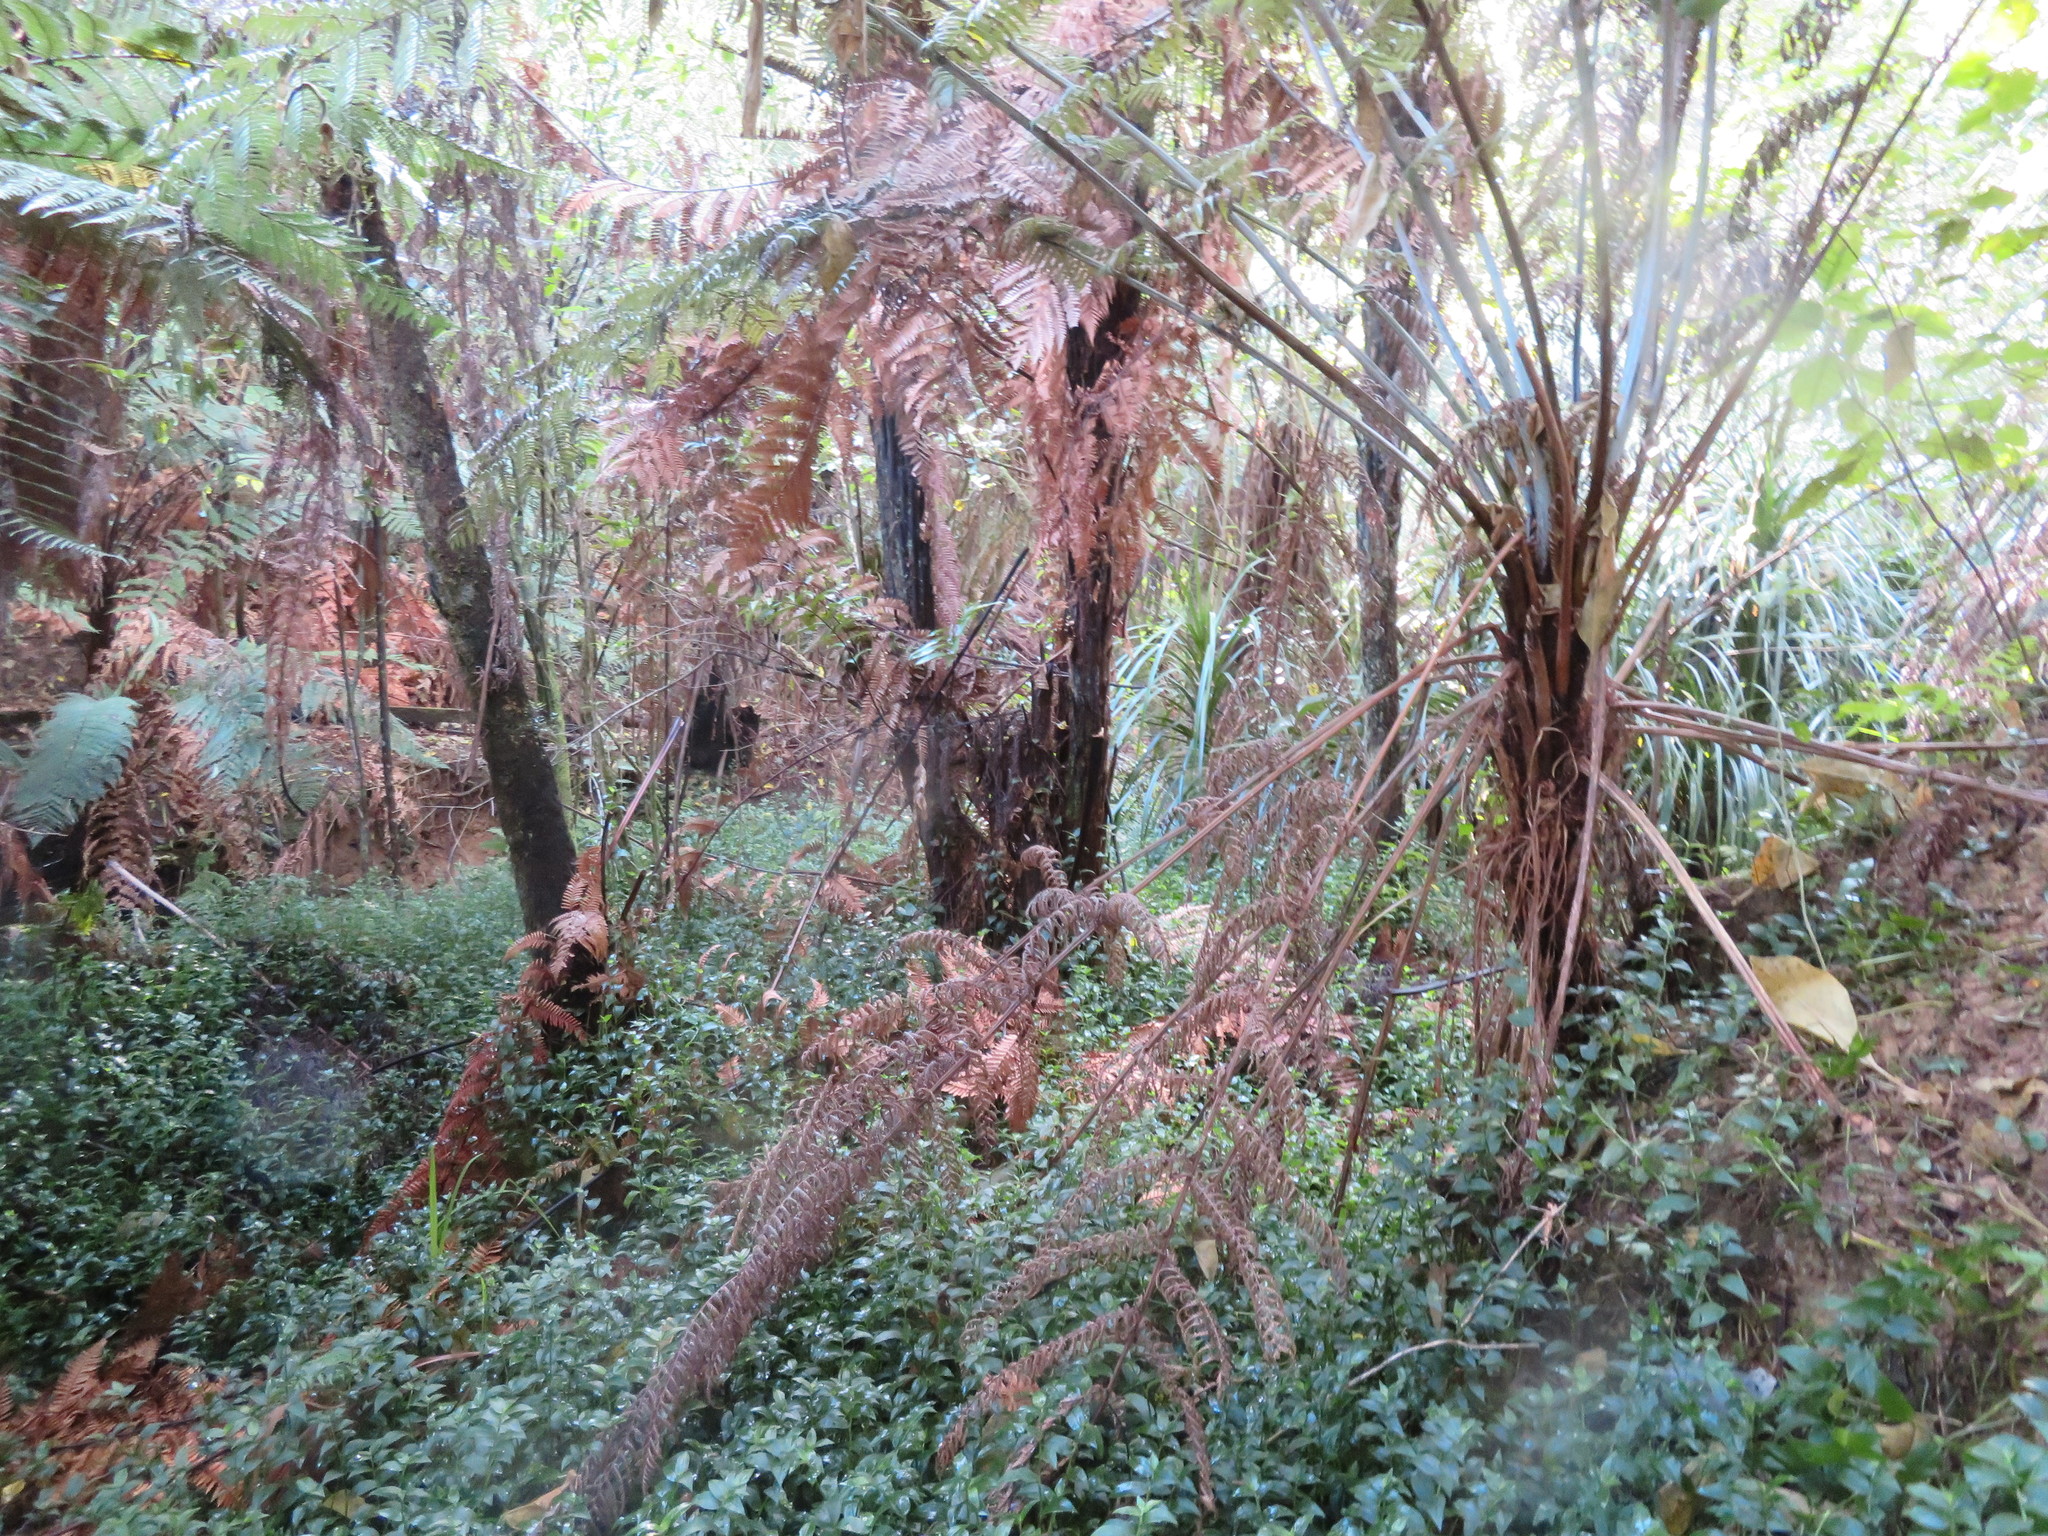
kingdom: Plantae
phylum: Tracheophyta
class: Liliopsida
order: Commelinales
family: Commelinaceae
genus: Tradescantia
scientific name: Tradescantia fluminensis
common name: Wandering-jew
